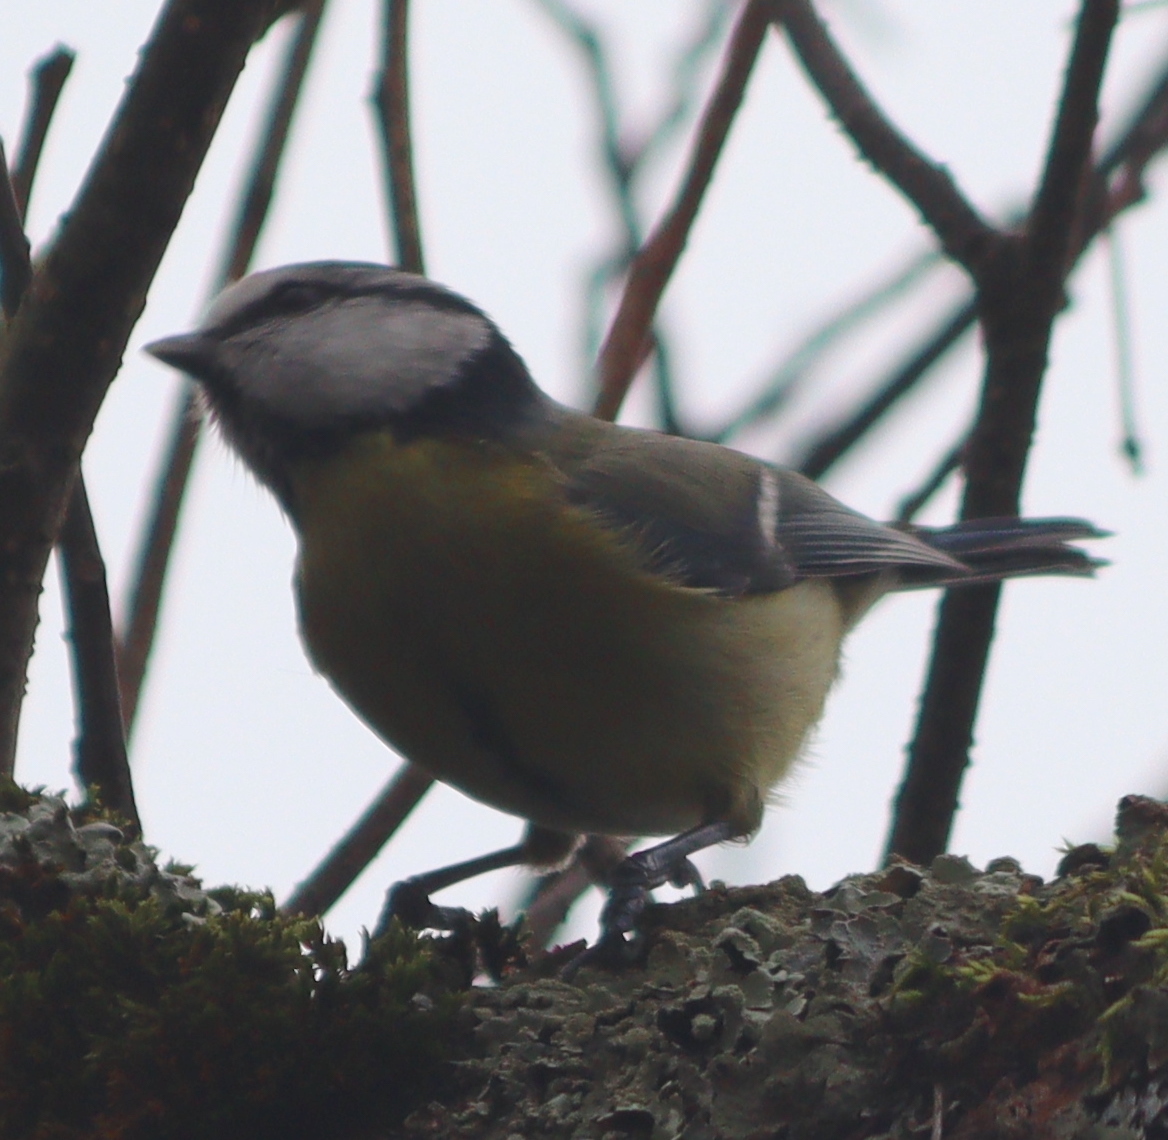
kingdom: Animalia
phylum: Chordata
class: Aves
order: Passeriformes
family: Paridae
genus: Cyanistes
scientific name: Cyanistes caeruleus
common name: Eurasian blue tit
